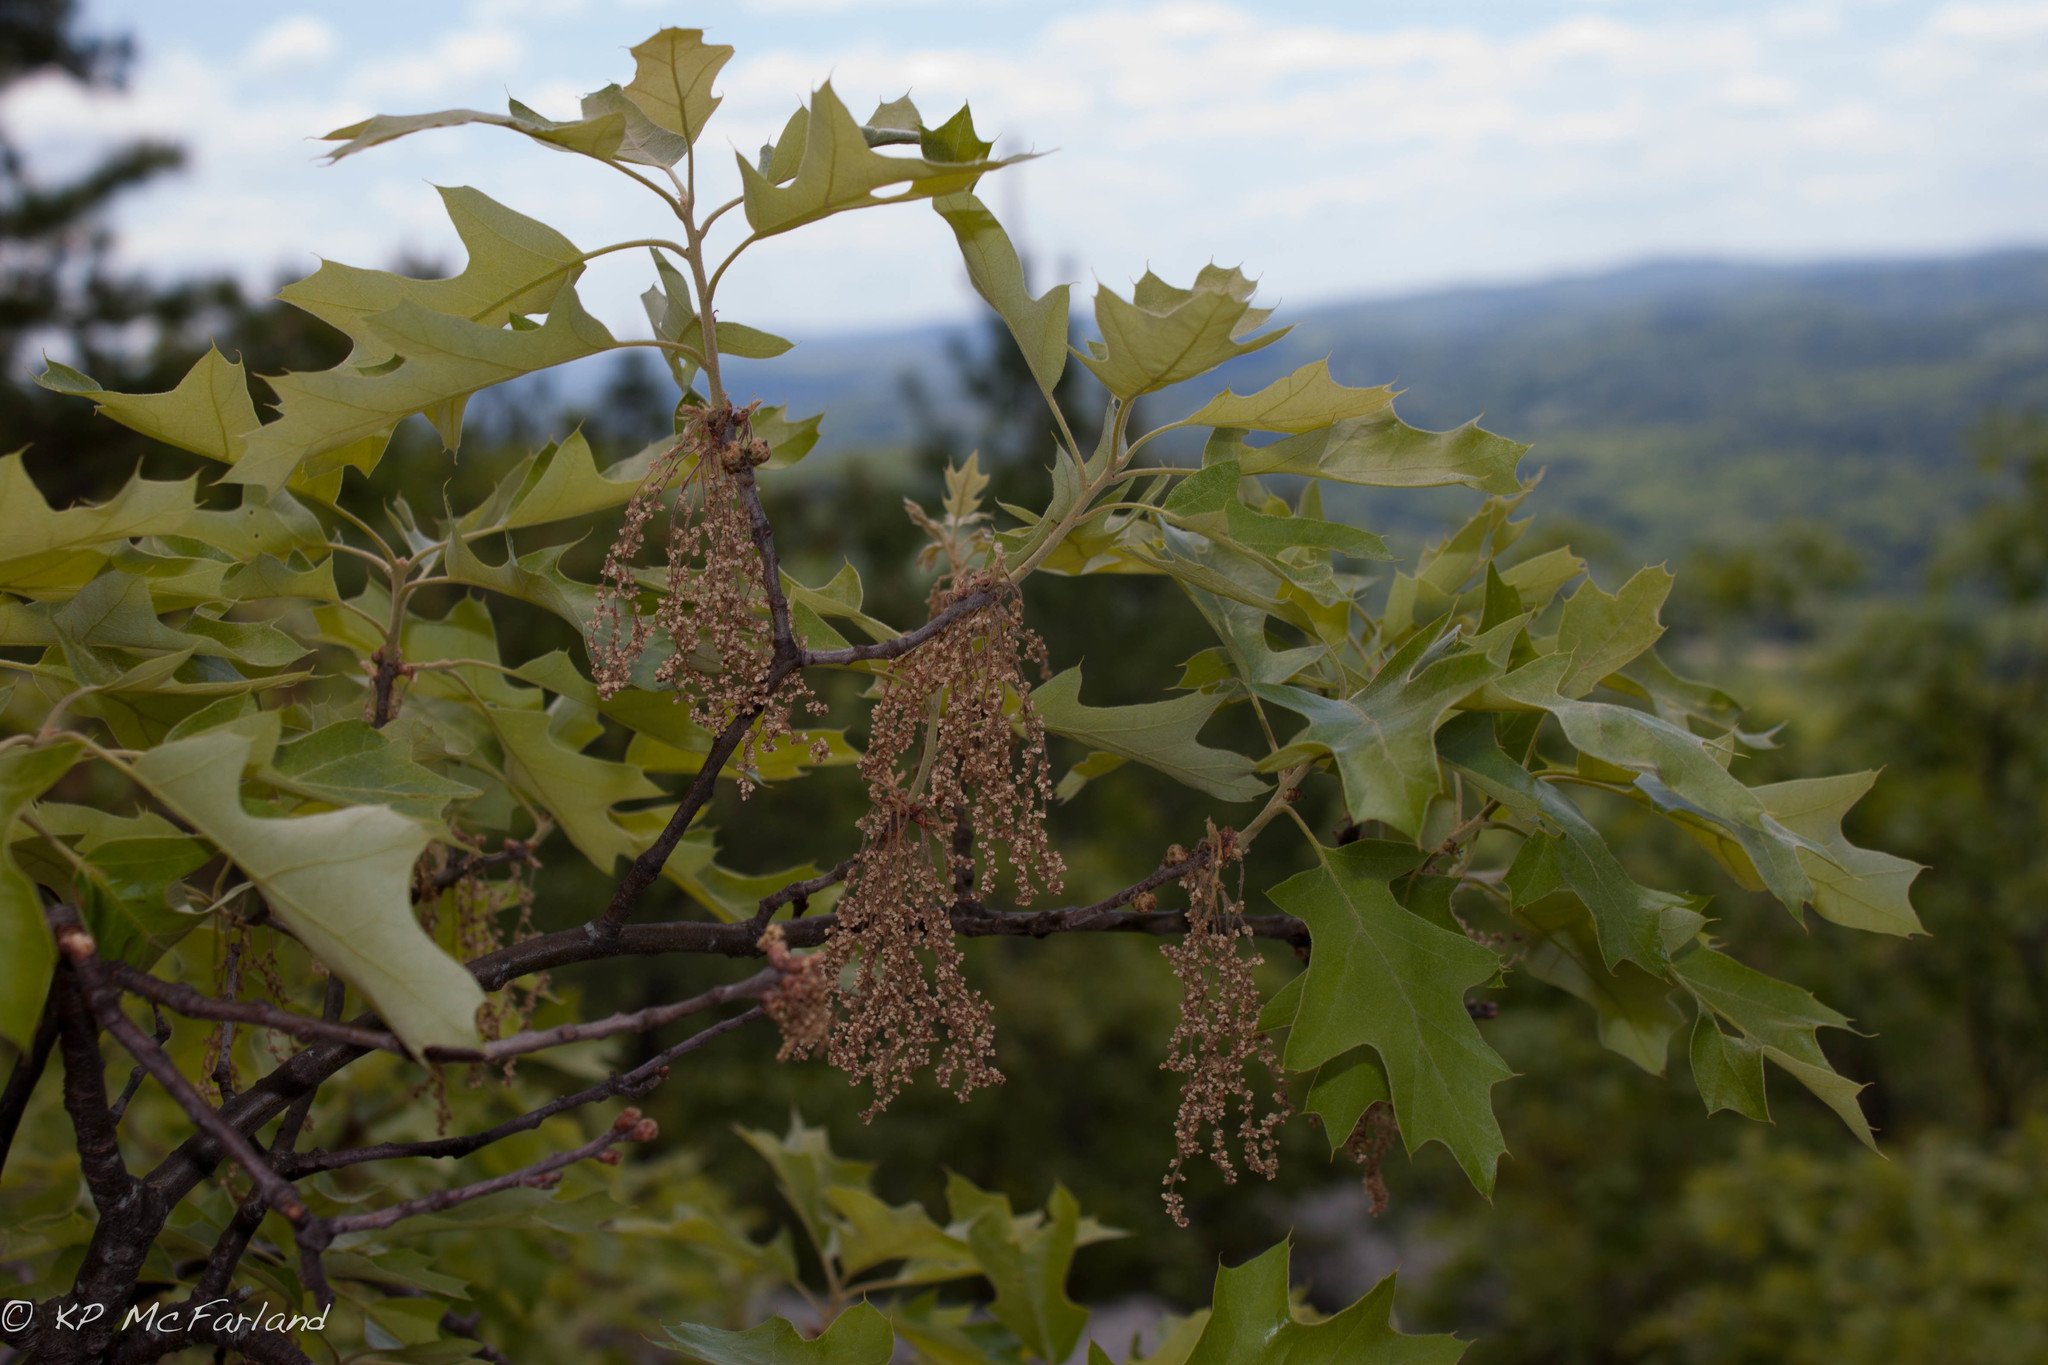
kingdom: Plantae
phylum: Tracheophyta
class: Magnoliopsida
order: Fagales
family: Fagaceae
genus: Quercus
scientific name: Quercus ilicifolia
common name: Bear oak
